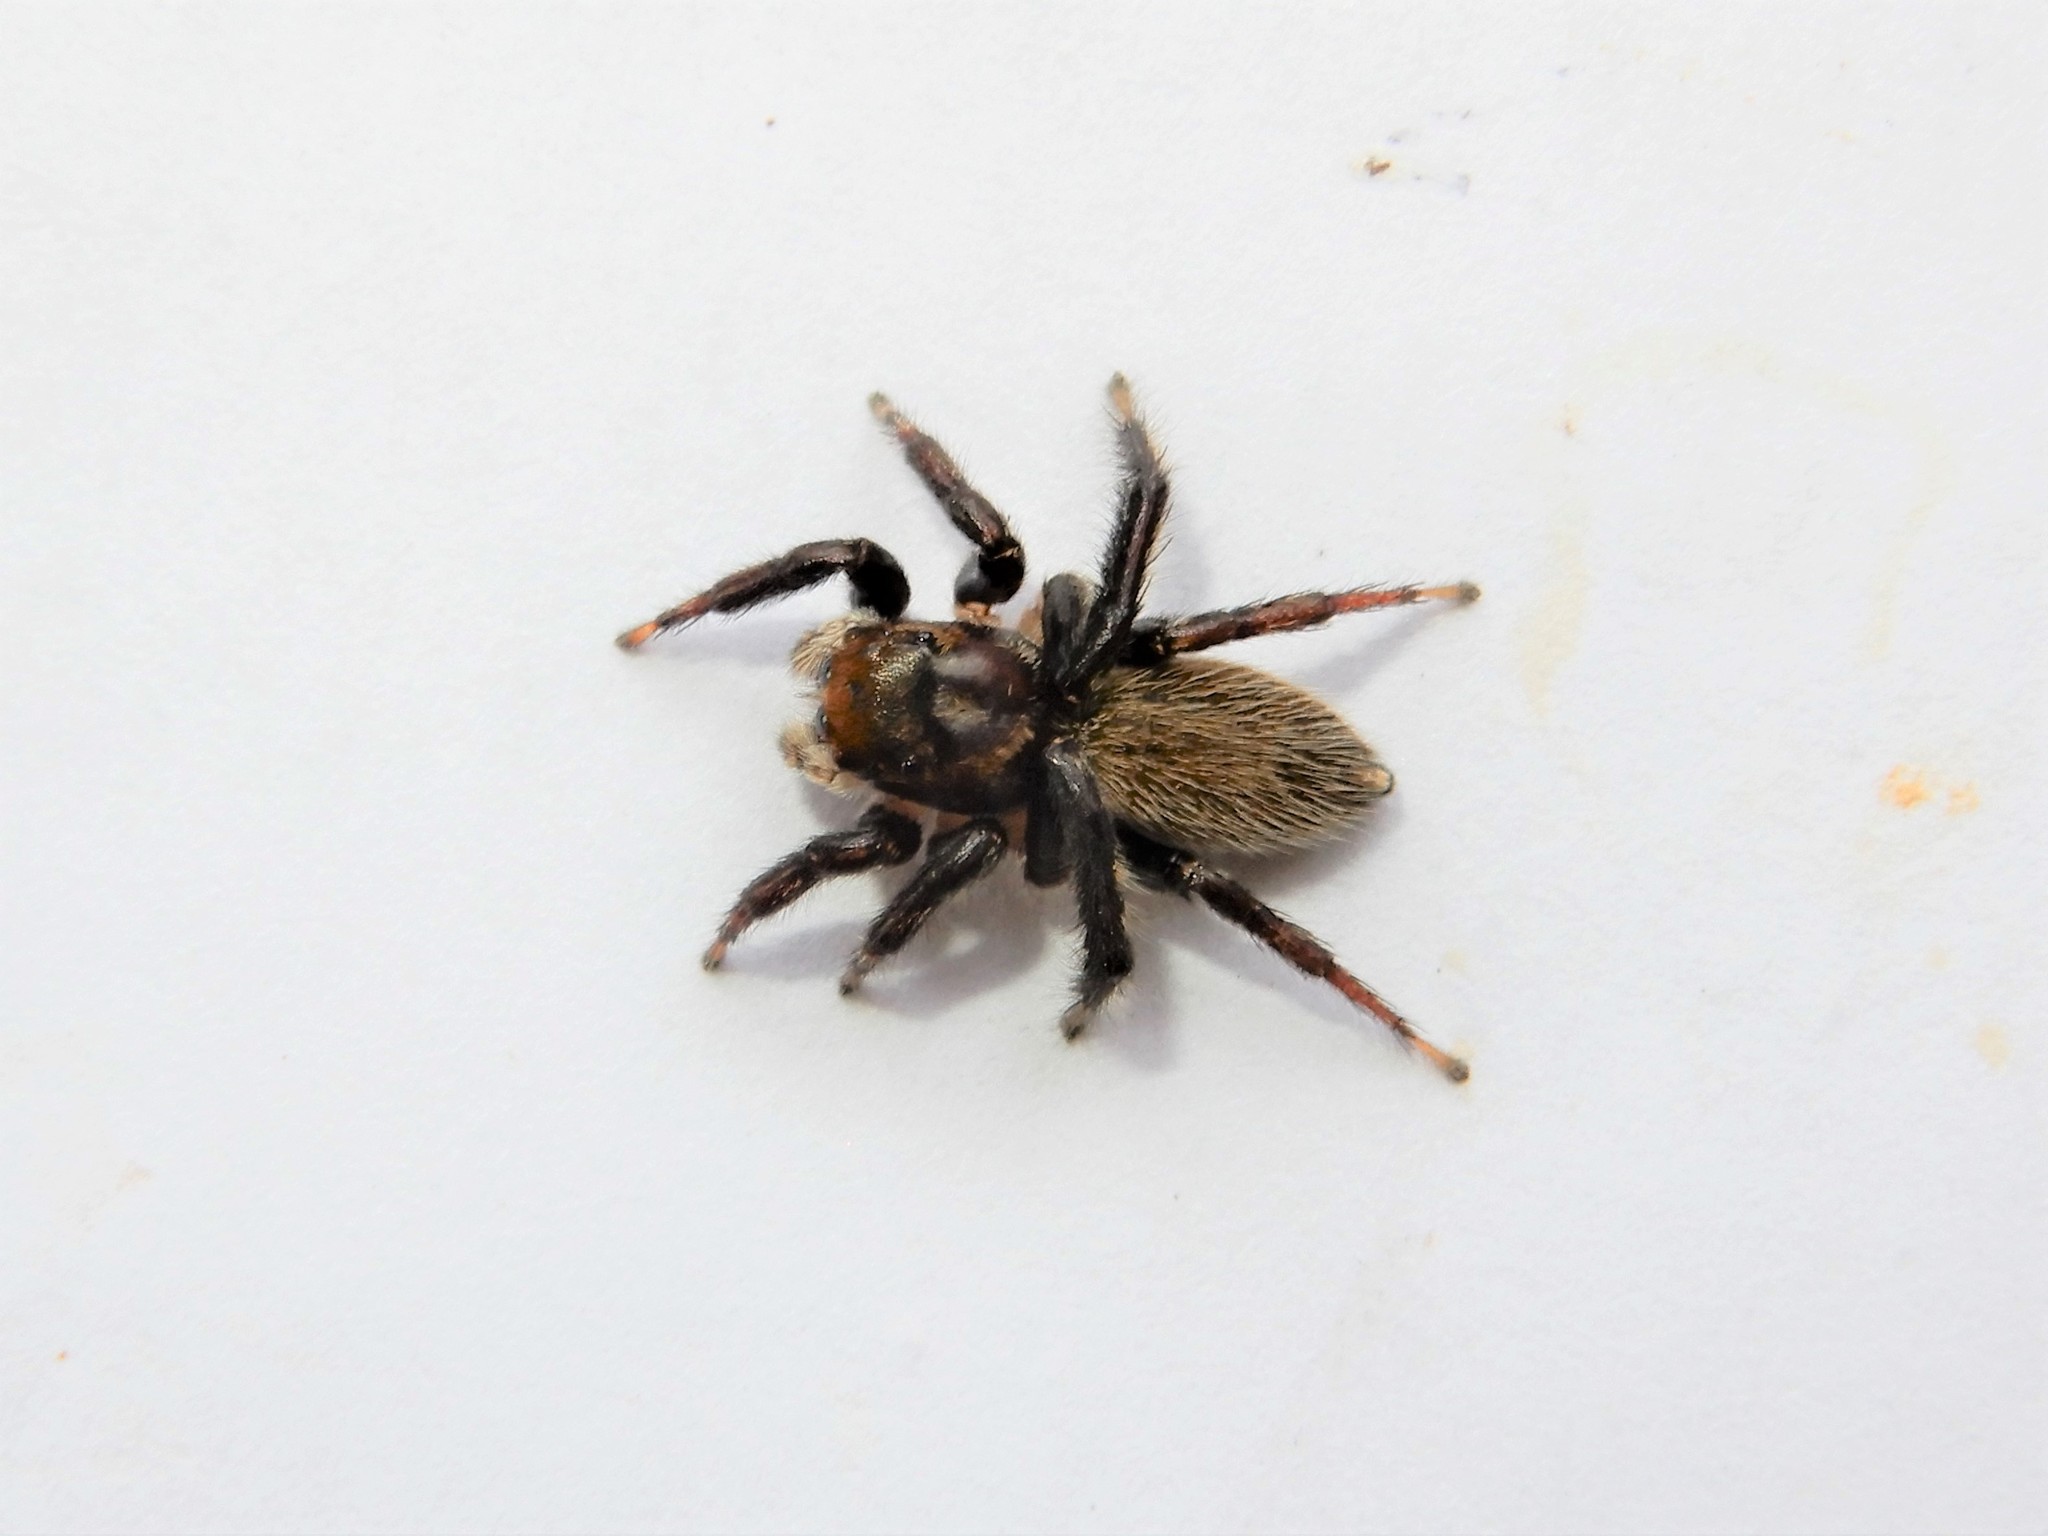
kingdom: Animalia
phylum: Arthropoda
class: Arachnida
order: Araneae
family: Salticidae
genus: Maratus
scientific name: Maratus griseus
